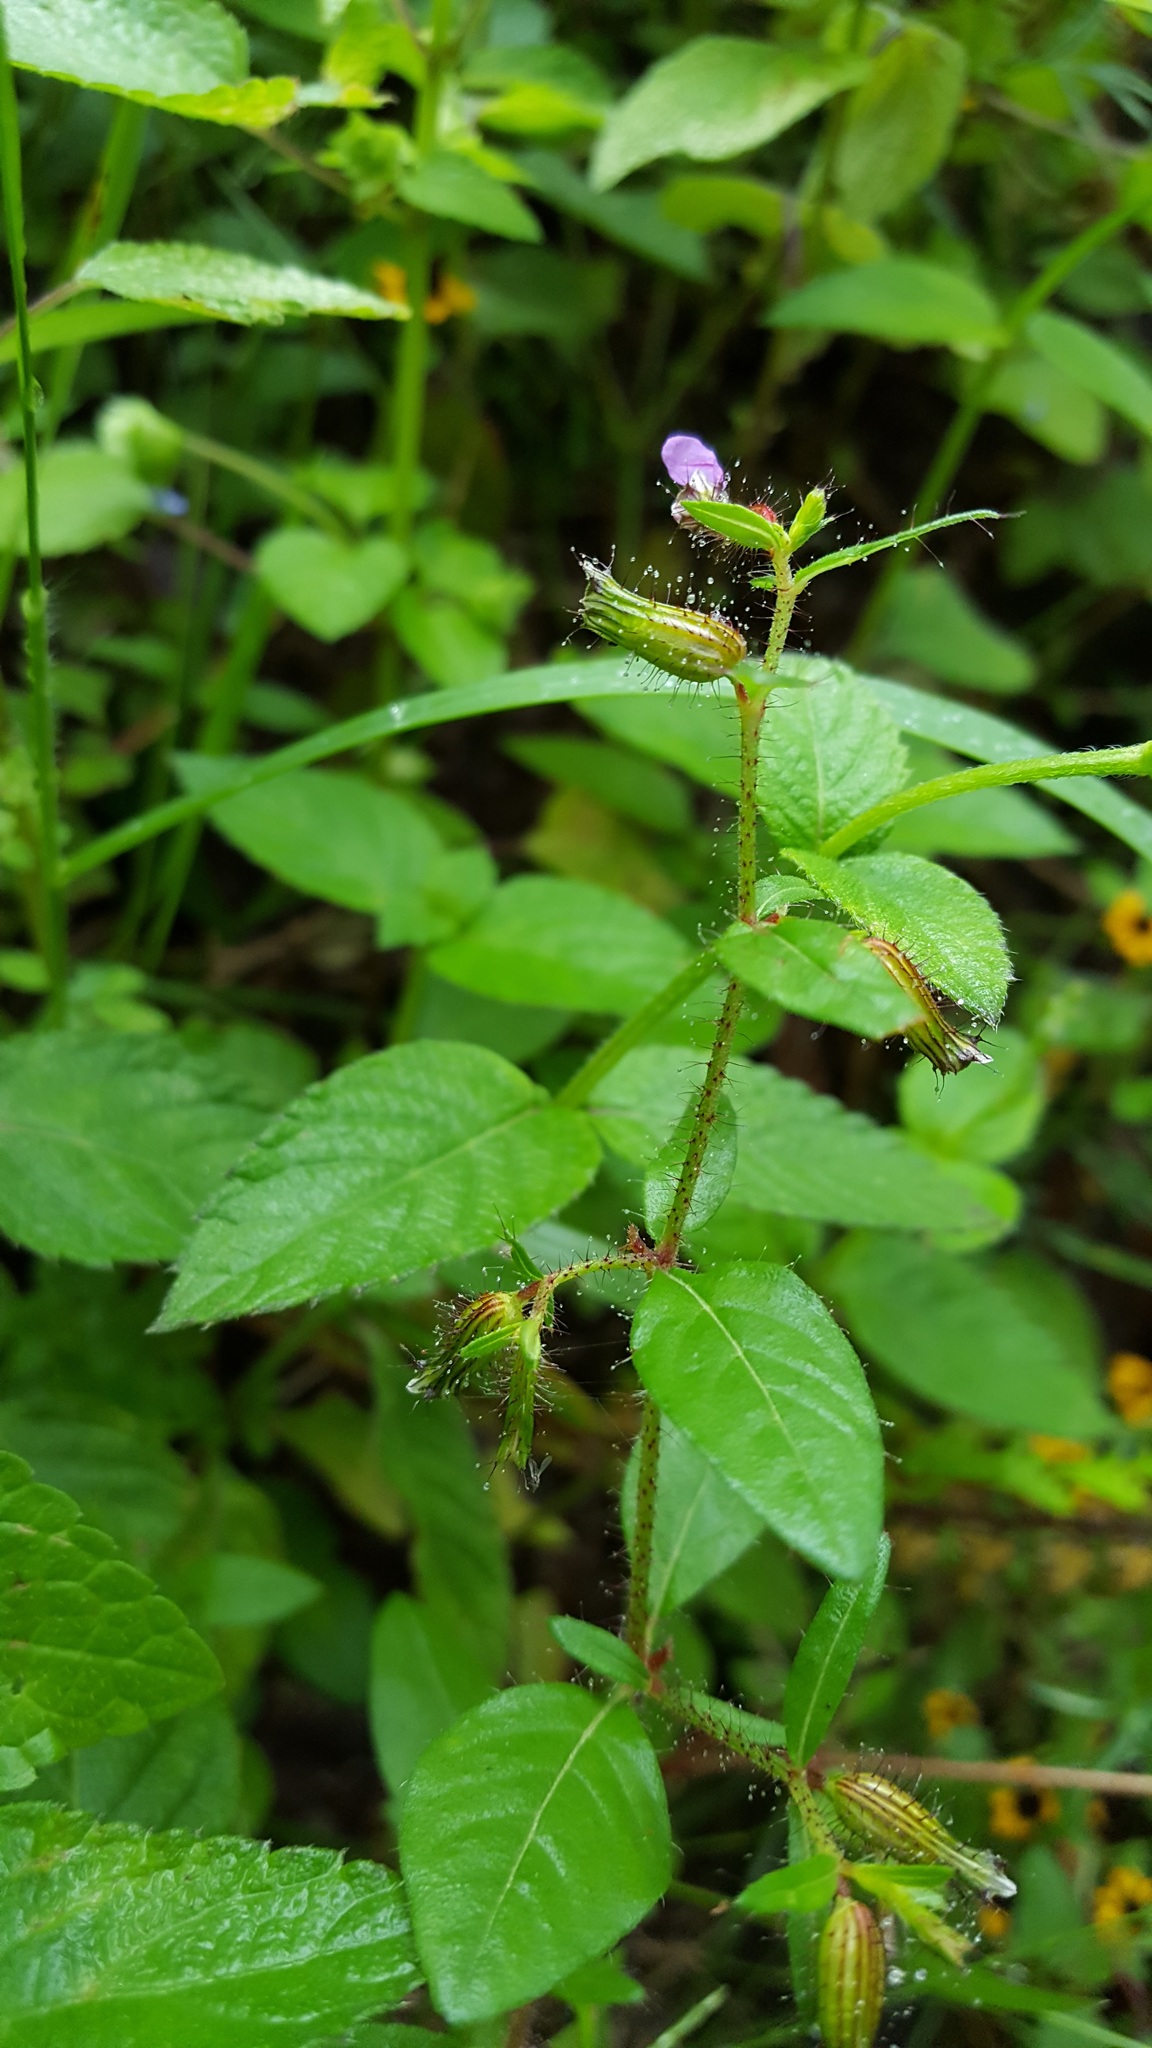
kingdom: Plantae
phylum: Tracheophyta
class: Magnoliopsida
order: Myrtales
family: Lythraceae
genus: Cuphea
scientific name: Cuphea procumbens
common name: Creeping waxweed
